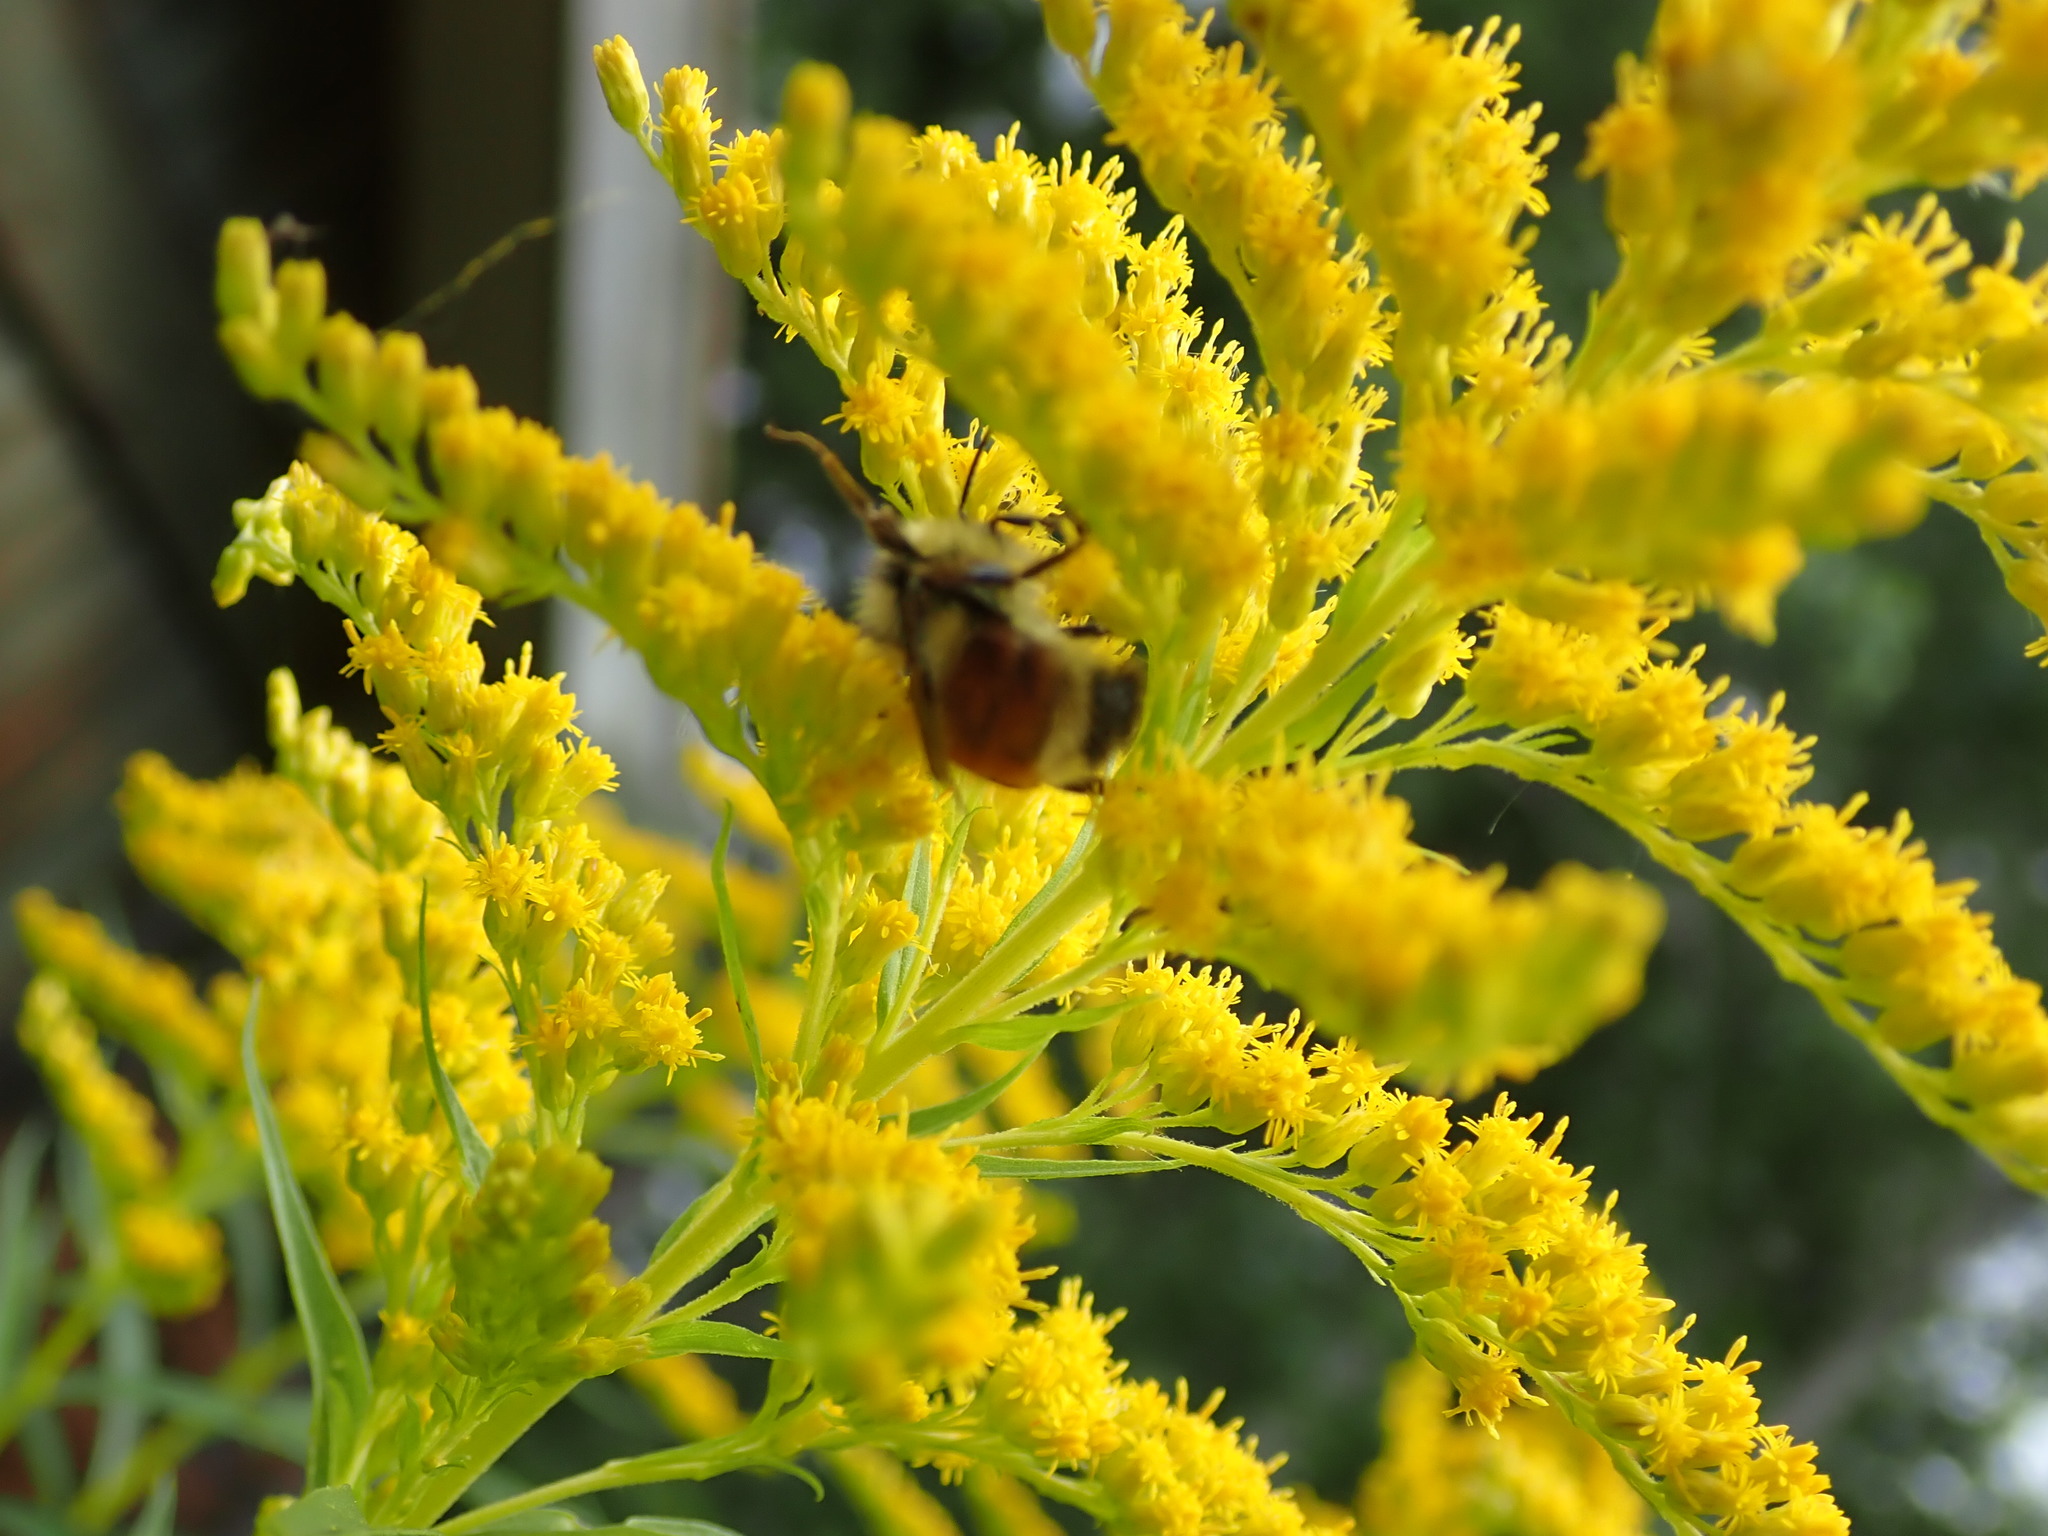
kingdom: Animalia
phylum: Arthropoda
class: Insecta
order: Hymenoptera
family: Apidae
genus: Bombus
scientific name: Bombus ternarius
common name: Tri-colored bumble bee
